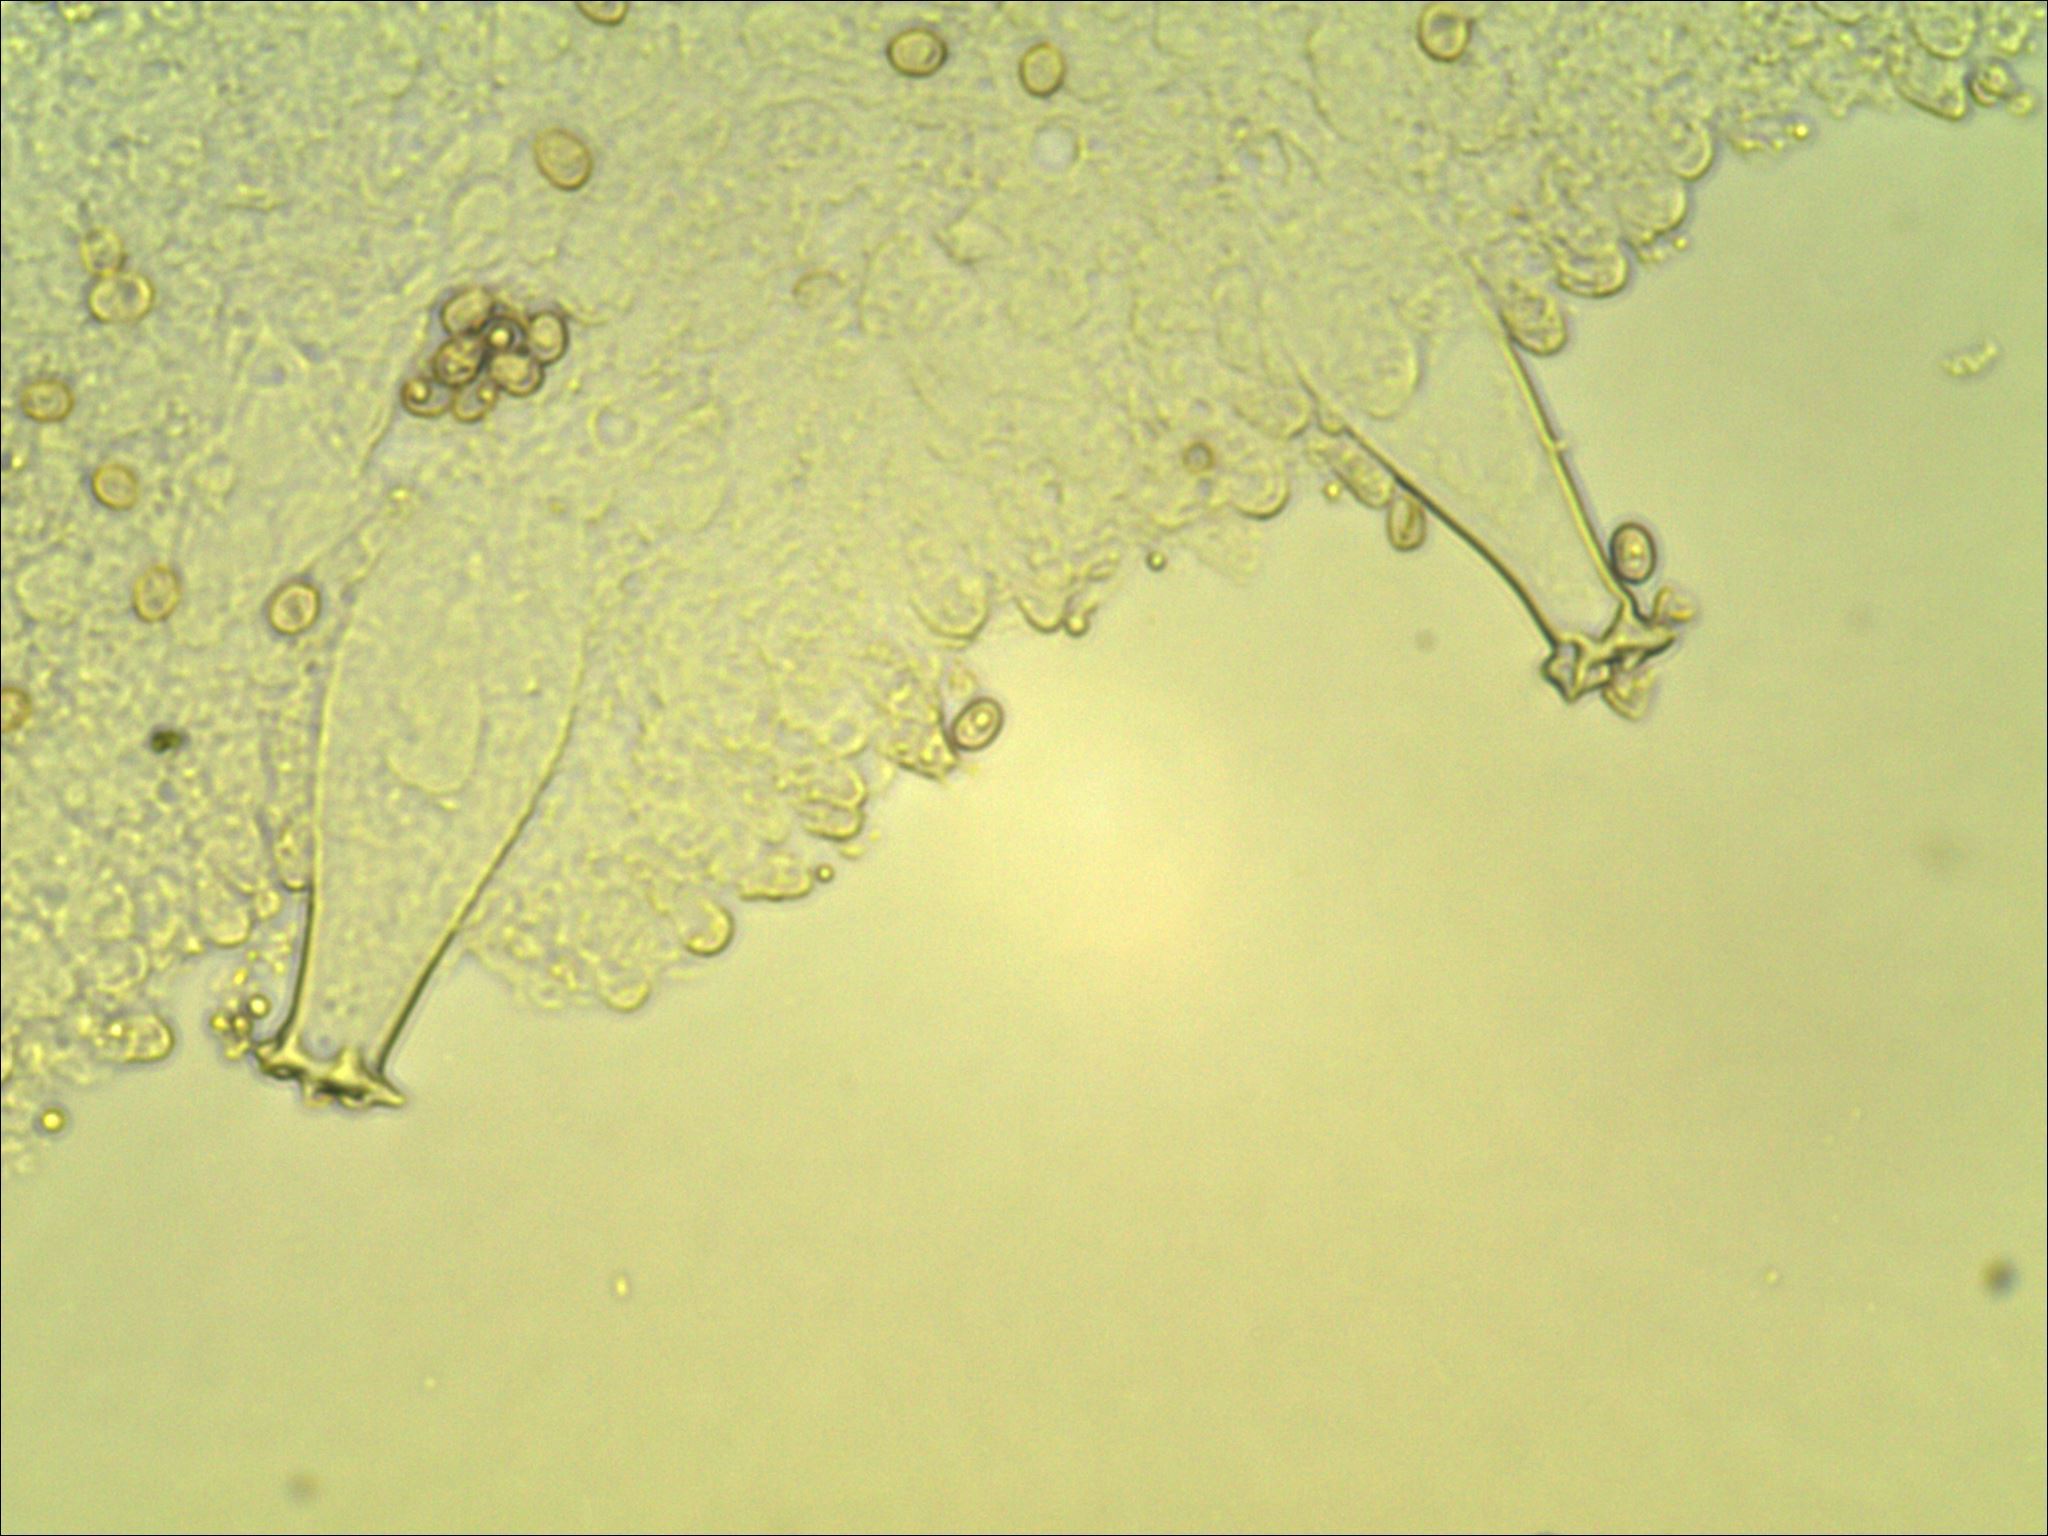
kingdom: Fungi
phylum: Basidiomycota
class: Agaricomycetes
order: Agaricales
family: Pluteaceae
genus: Pluteus
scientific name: Pluteus cervinus
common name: Deer shield
